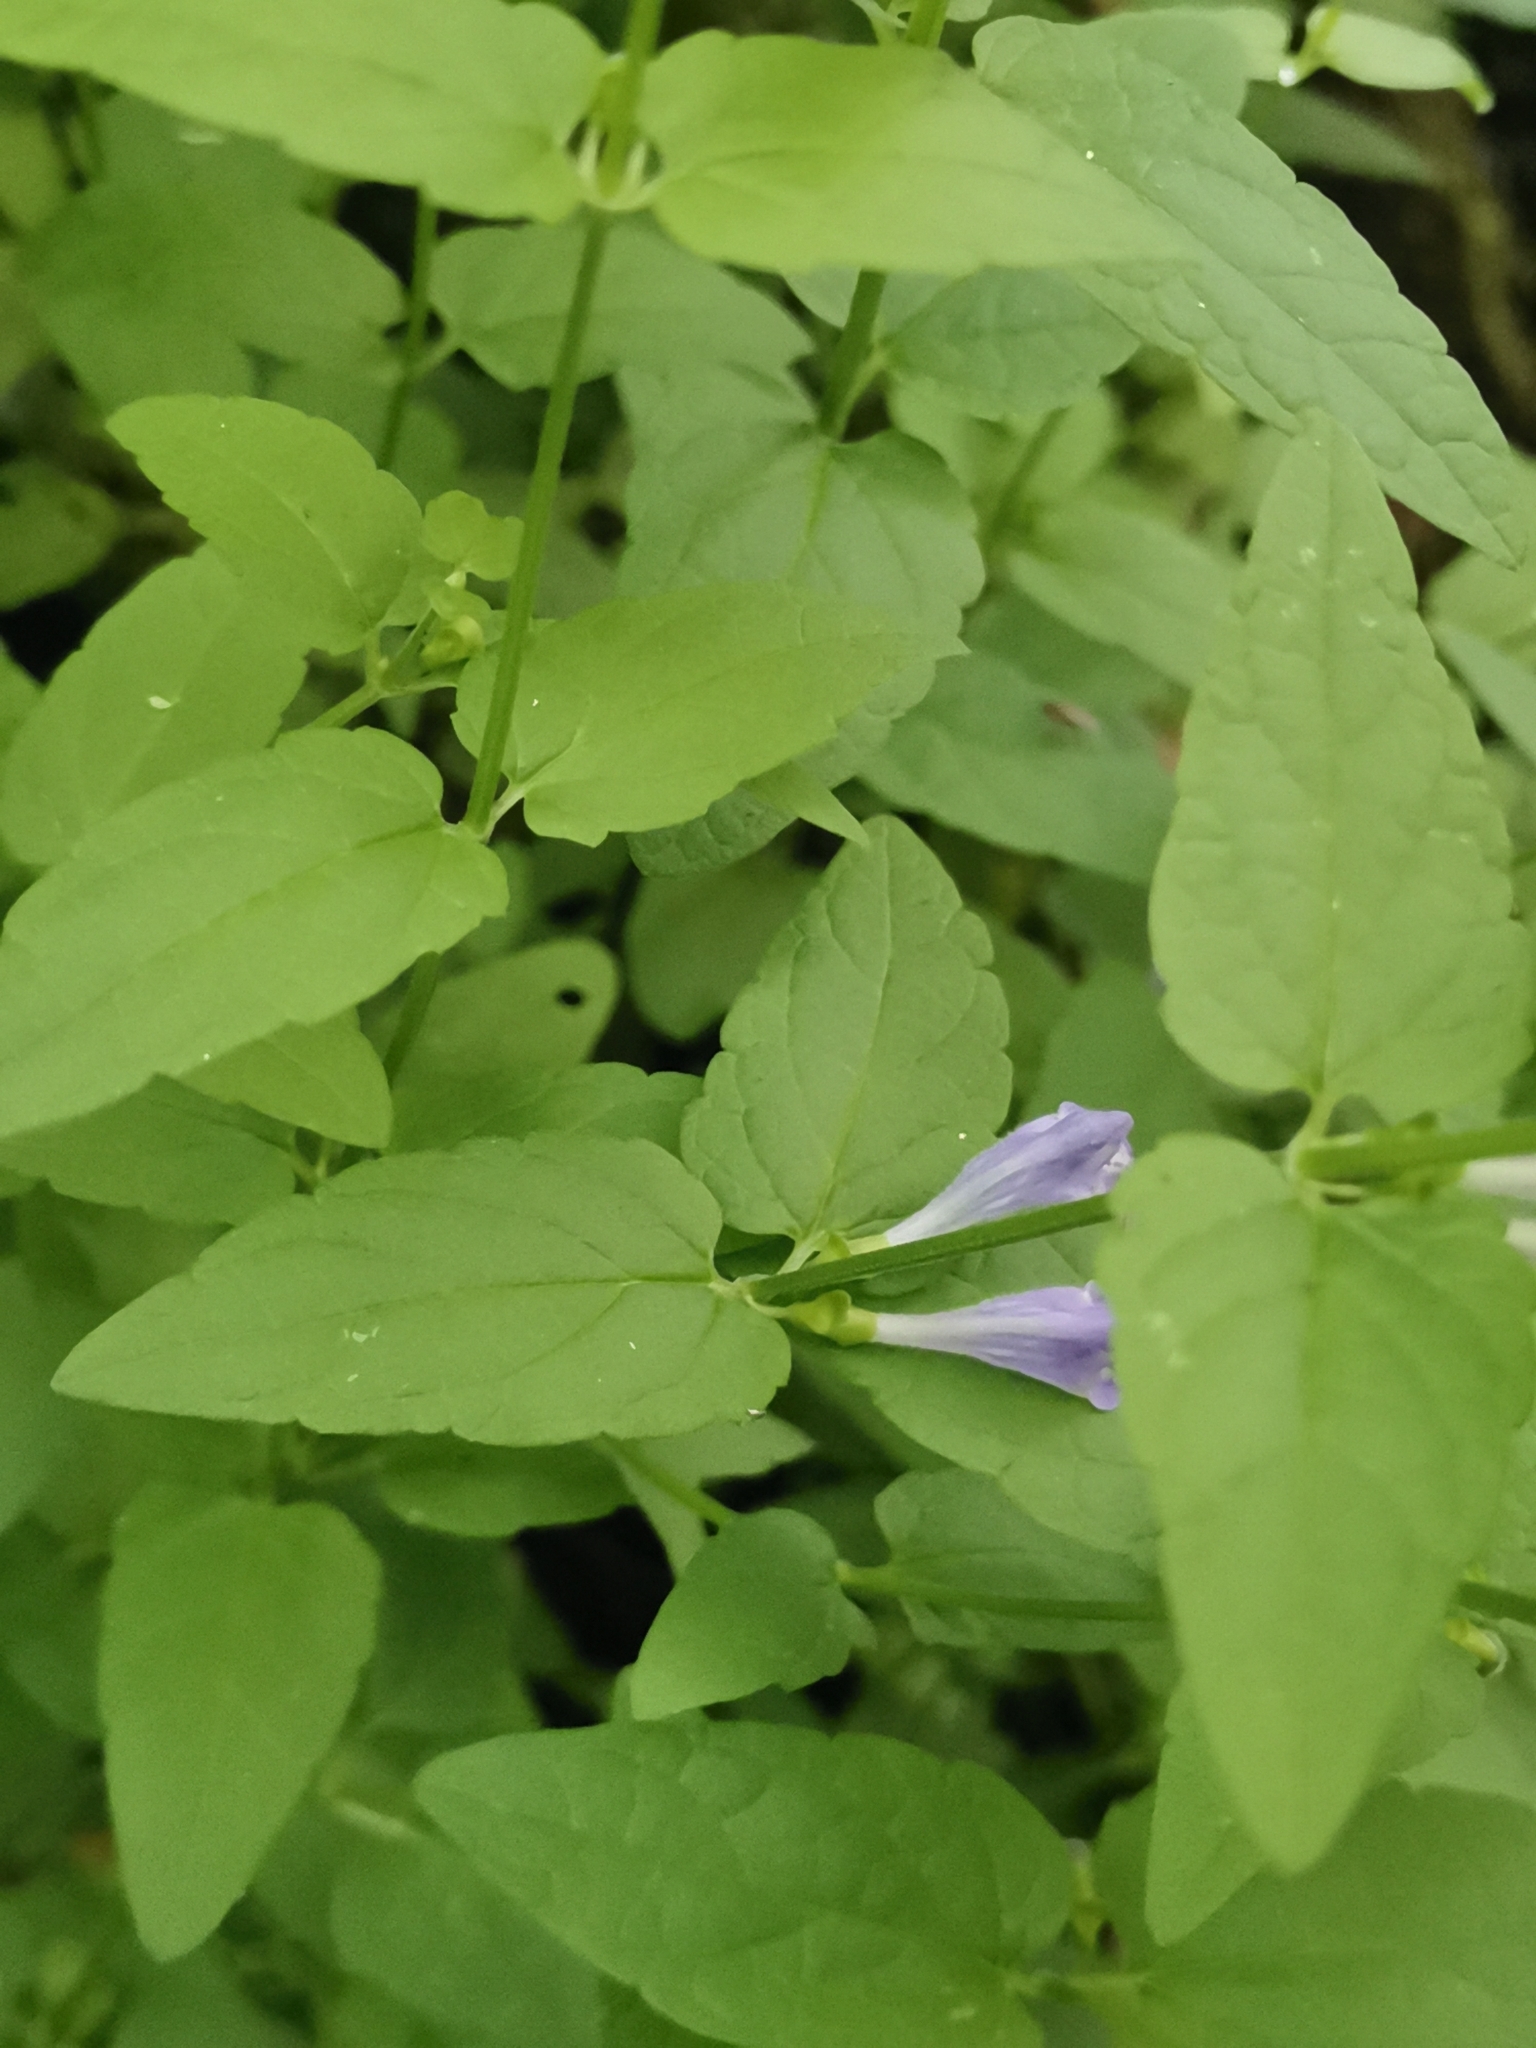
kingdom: Plantae
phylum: Tracheophyta
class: Magnoliopsida
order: Lamiales
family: Lamiaceae
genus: Scutellaria
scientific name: Scutellaria galericulata
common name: Skullcap
